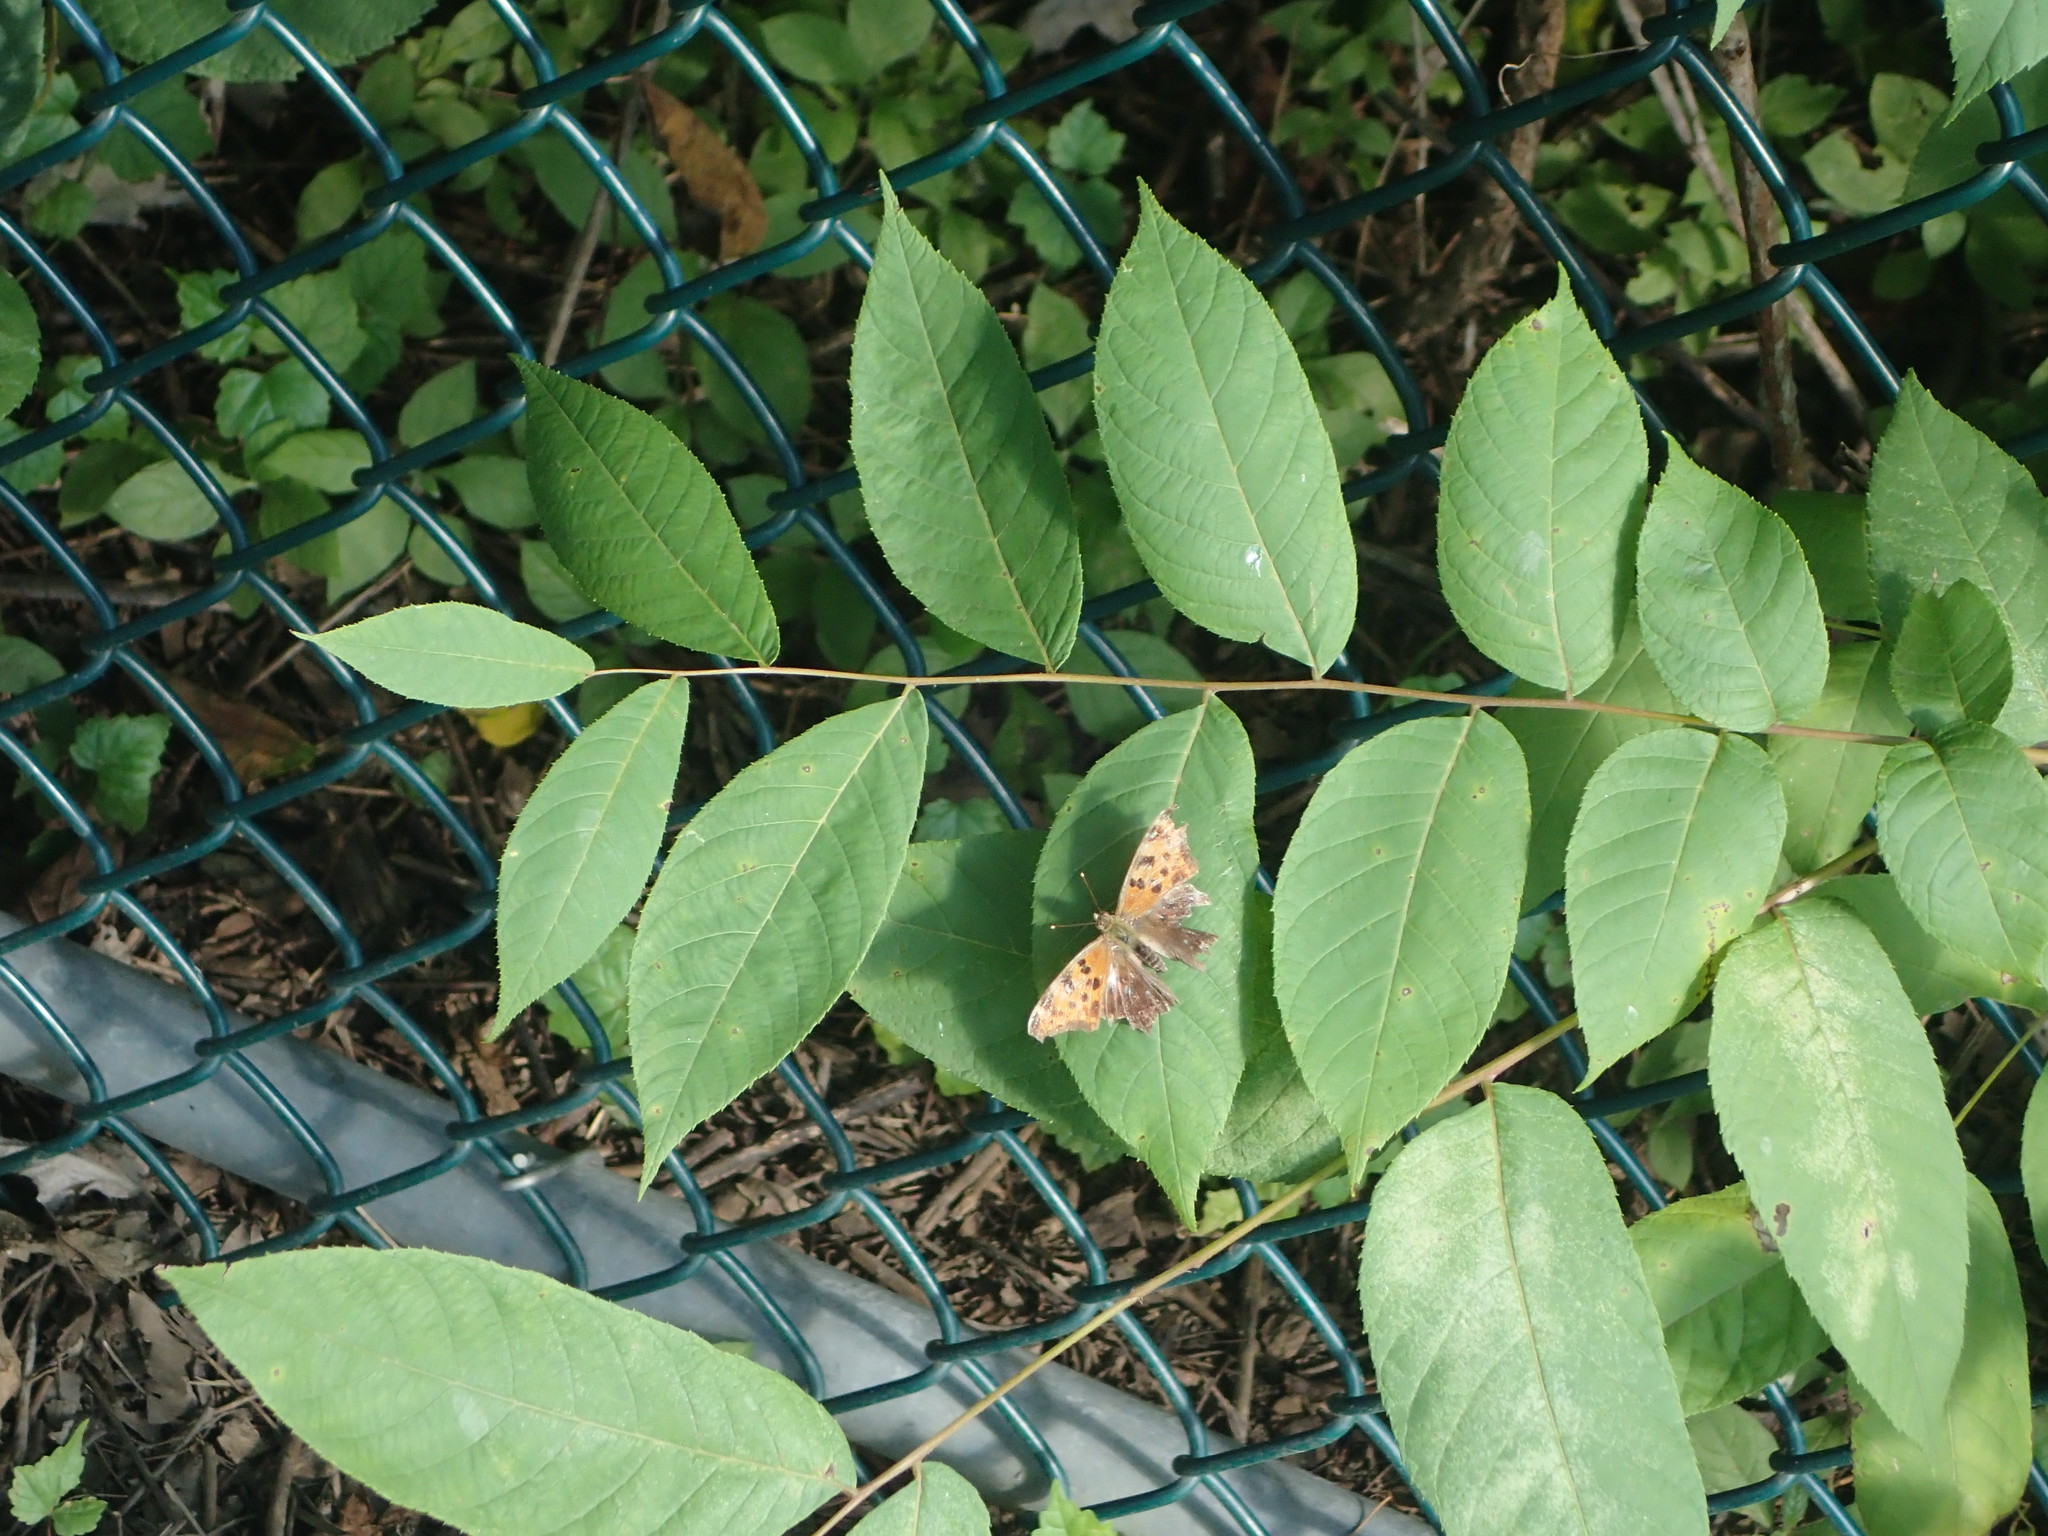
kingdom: Animalia
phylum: Arthropoda
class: Insecta
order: Lepidoptera
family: Nymphalidae
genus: Polygonia
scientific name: Polygonia comma
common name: Eastern comma
